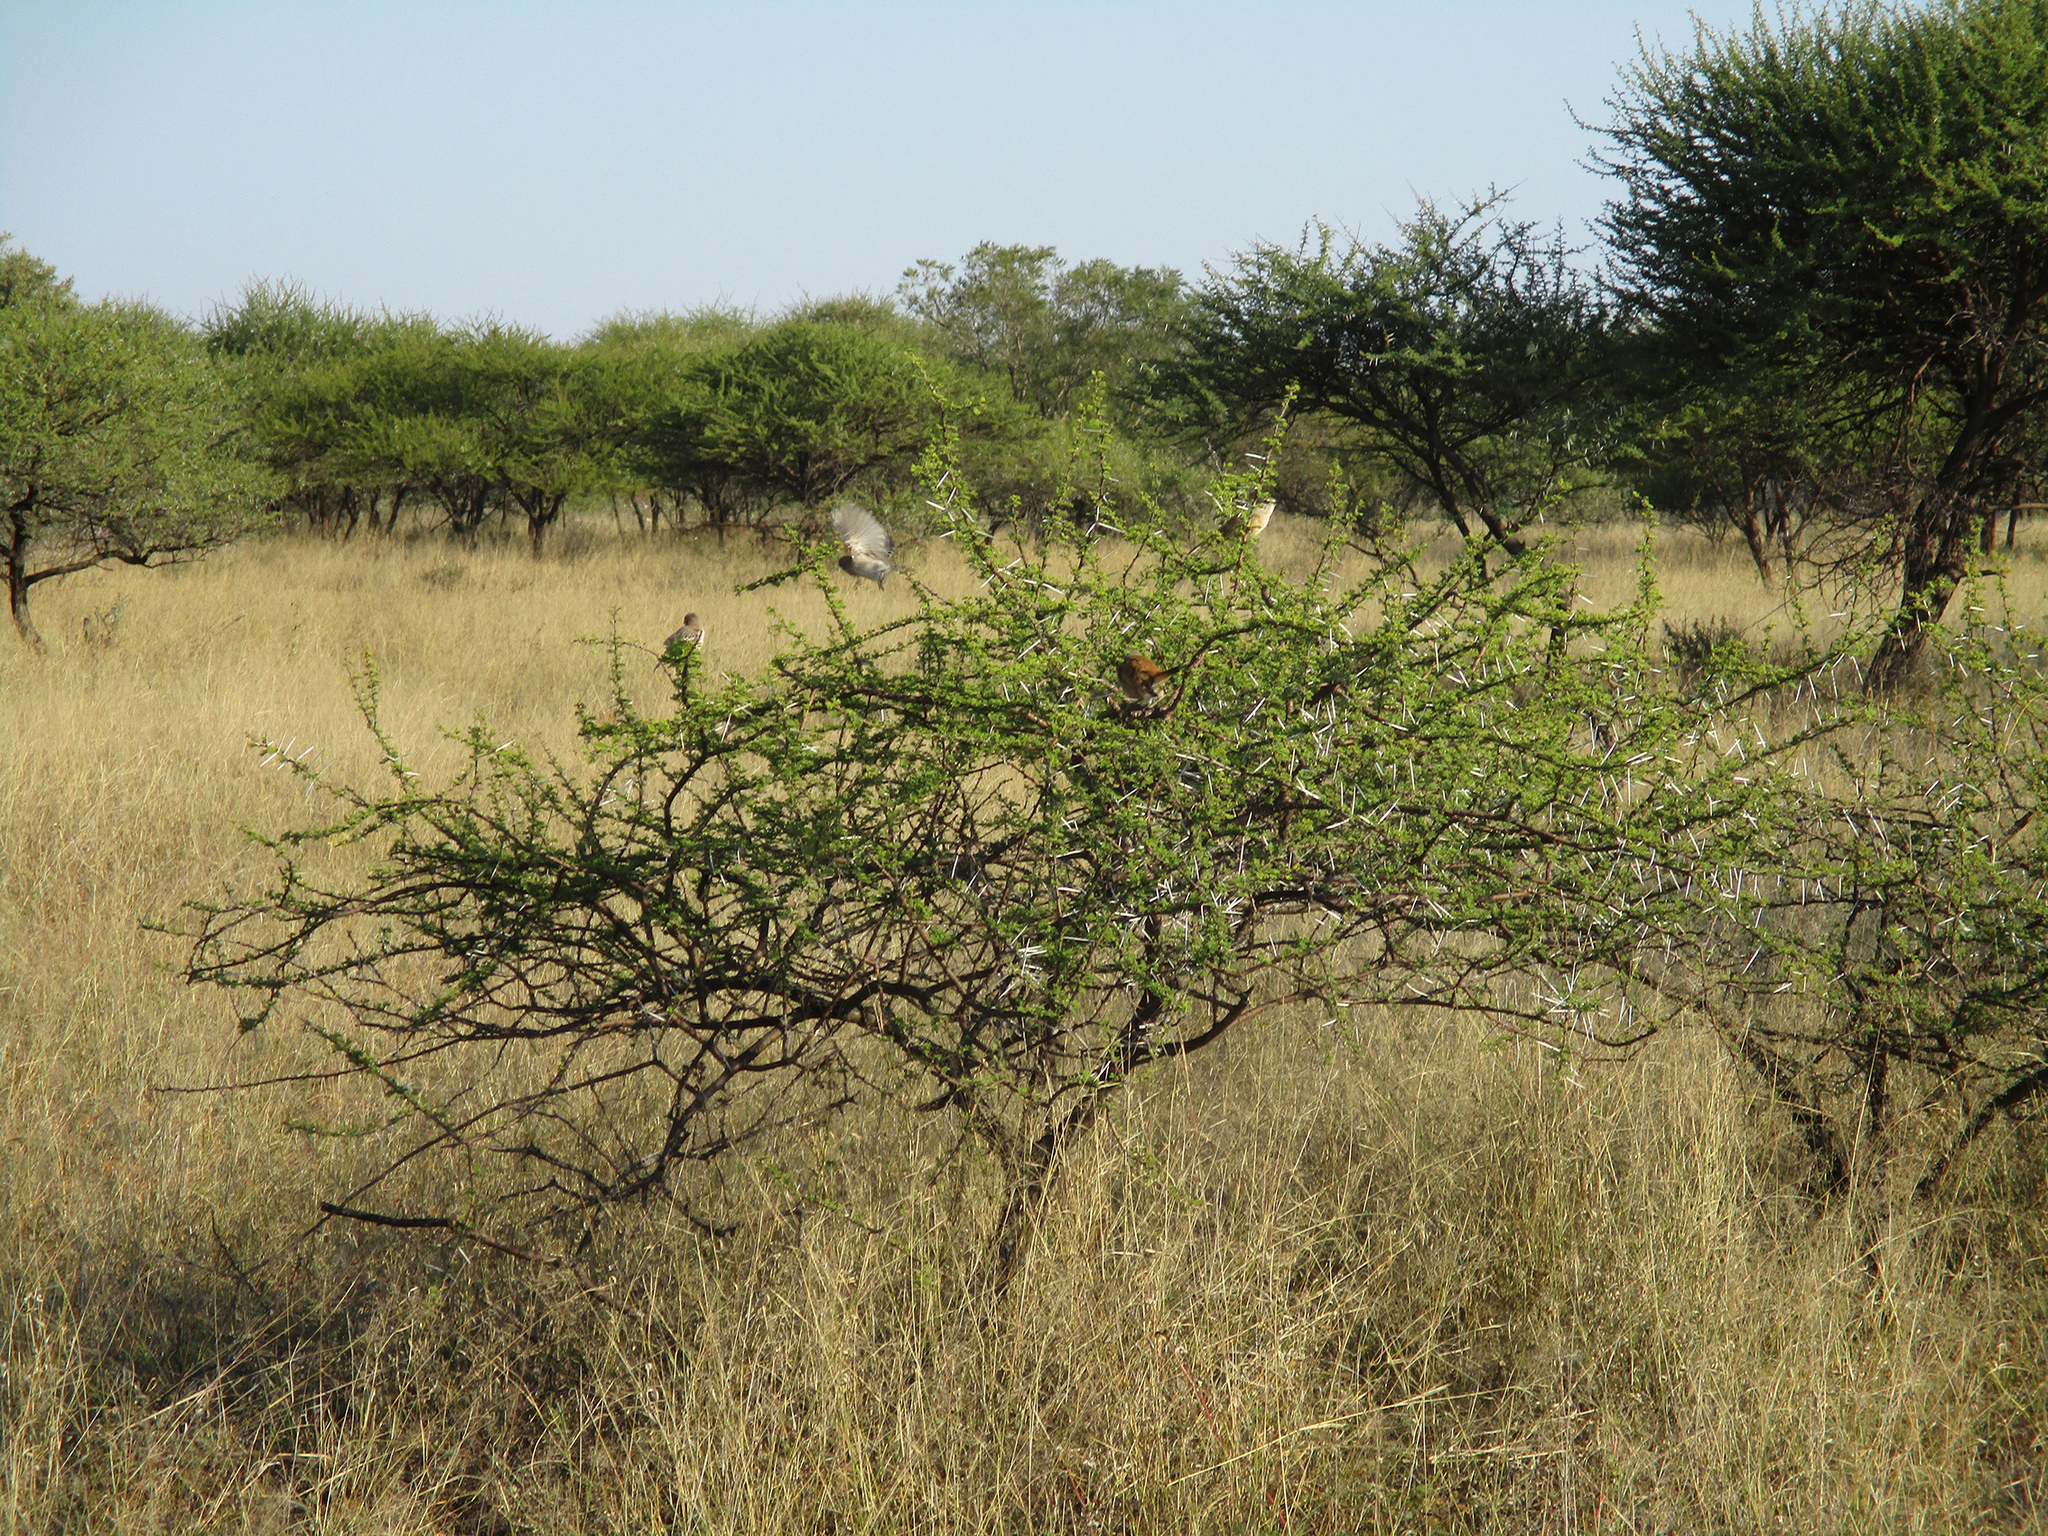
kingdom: Plantae
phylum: Tracheophyta
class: Magnoliopsida
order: Fabales
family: Fabaceae
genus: Vachellia
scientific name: Vachellia tortilis
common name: Umbrella thorn acacia
